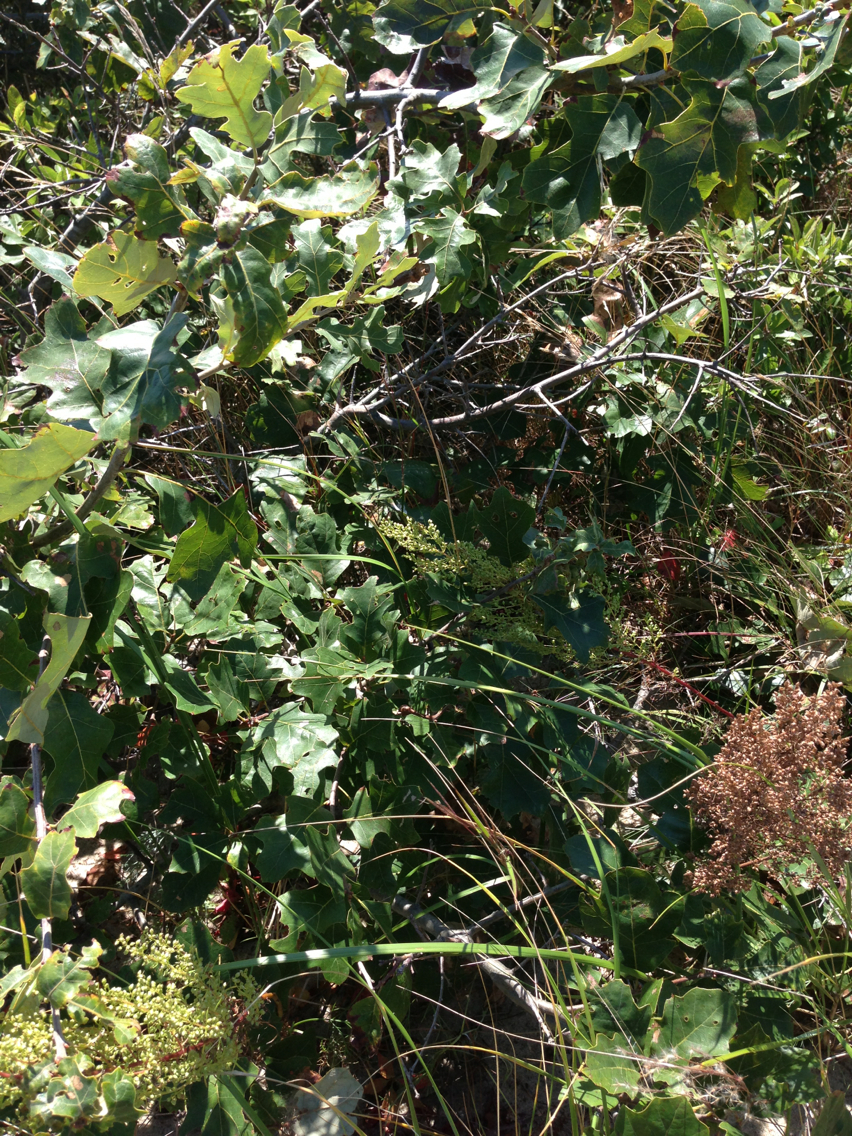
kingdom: Plantae
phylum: Tracheophyta
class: Magnoliopsida
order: Fagales
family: Fagaceae
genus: Quercus
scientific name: Quercus ilicifolia
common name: Bear oak
